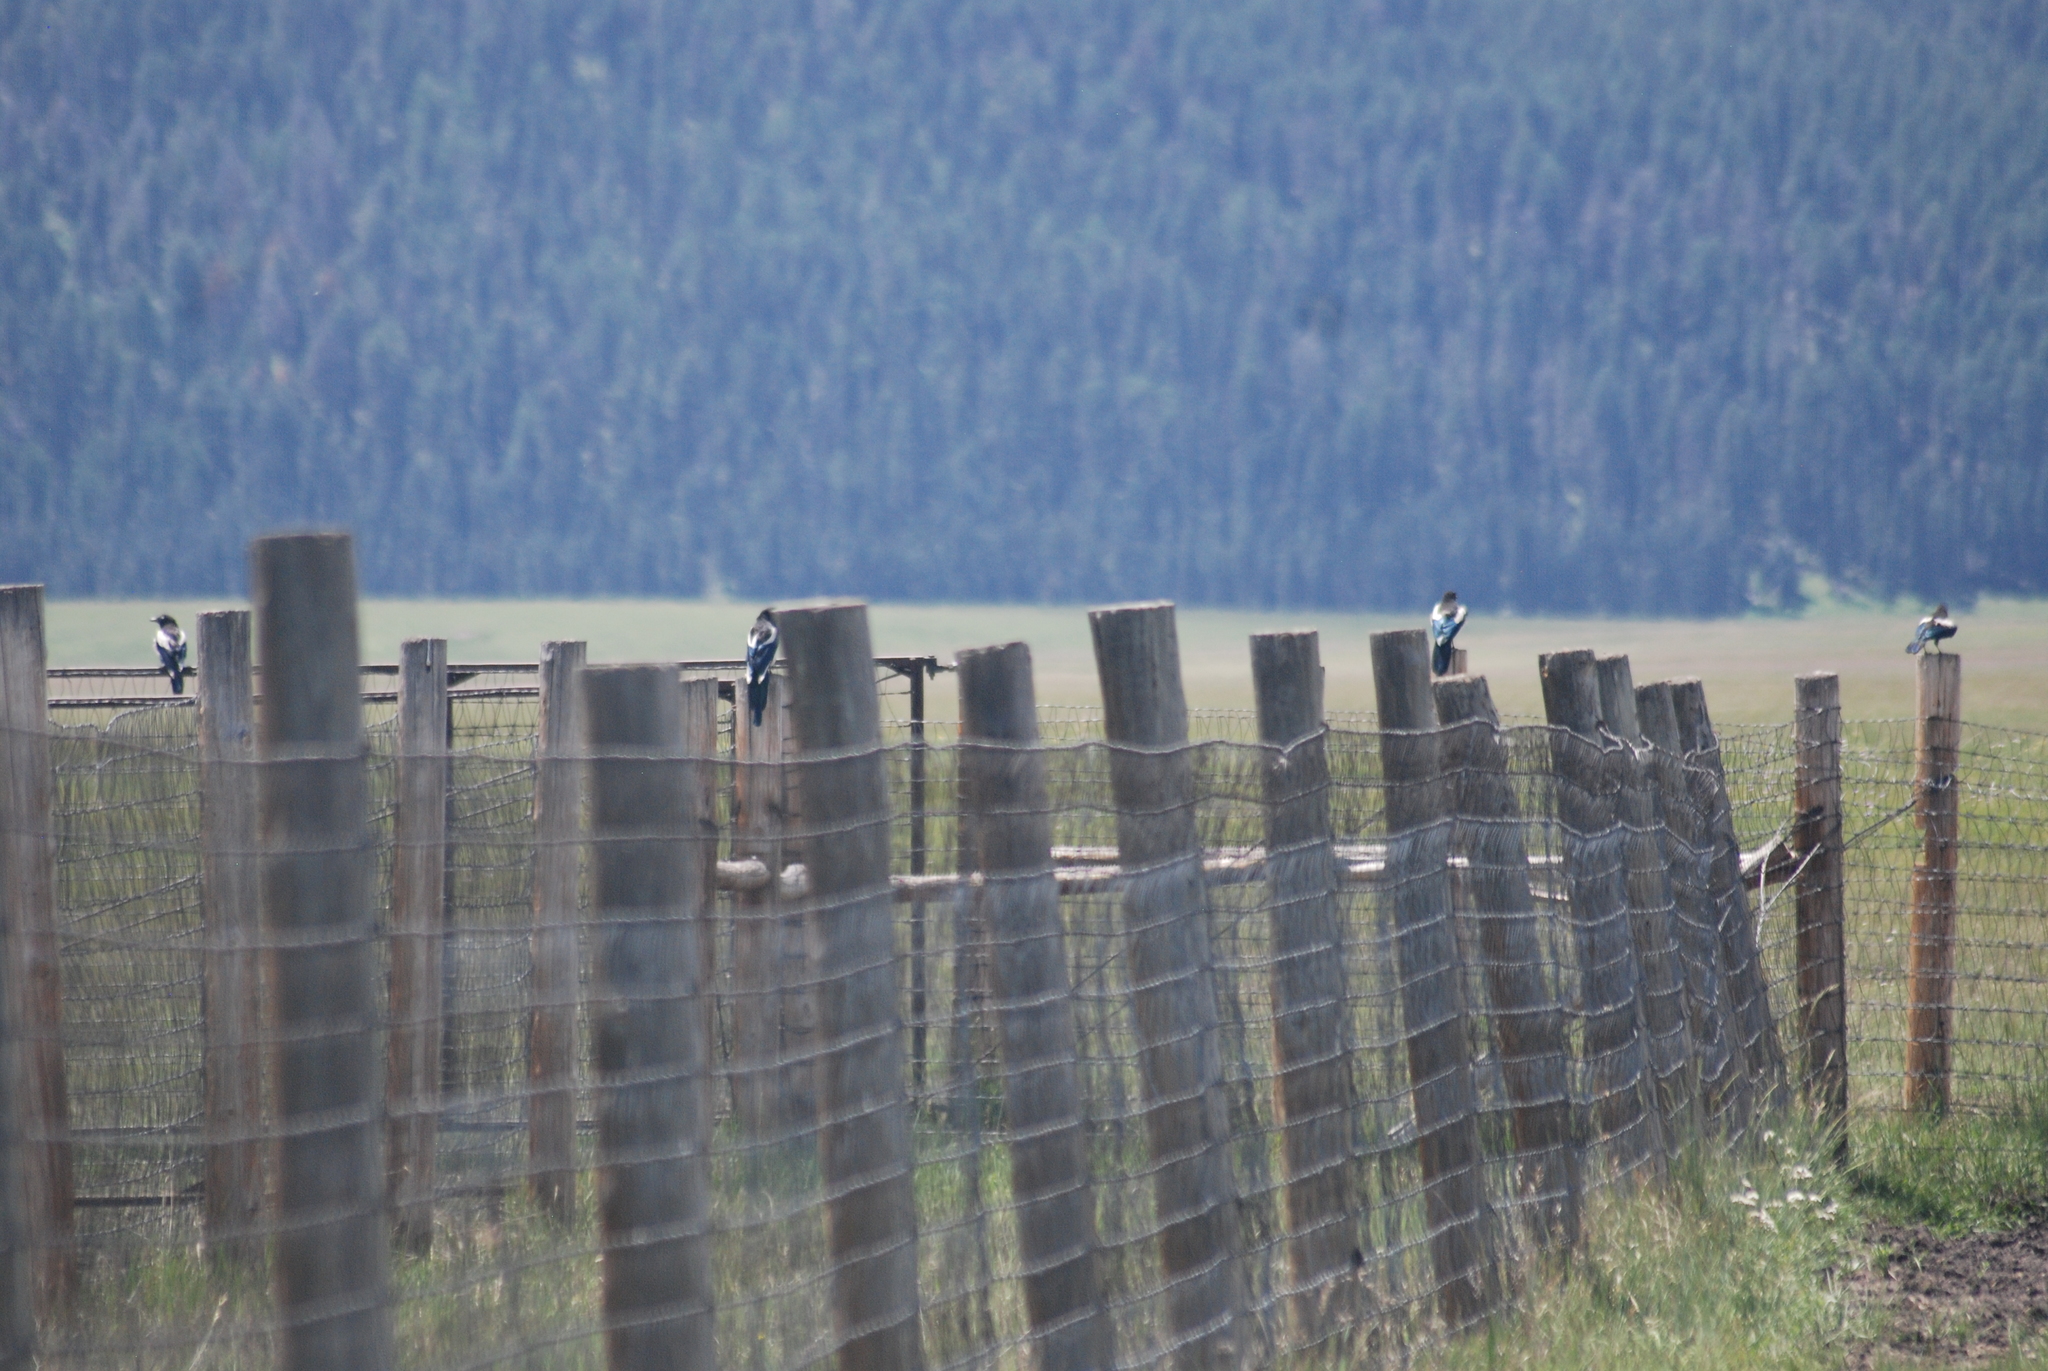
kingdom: Animalia
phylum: Chordata
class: Aves
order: Passeriformes
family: Corvidae
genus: Pica
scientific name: Pica hudsonia
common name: Black-billed magpie
